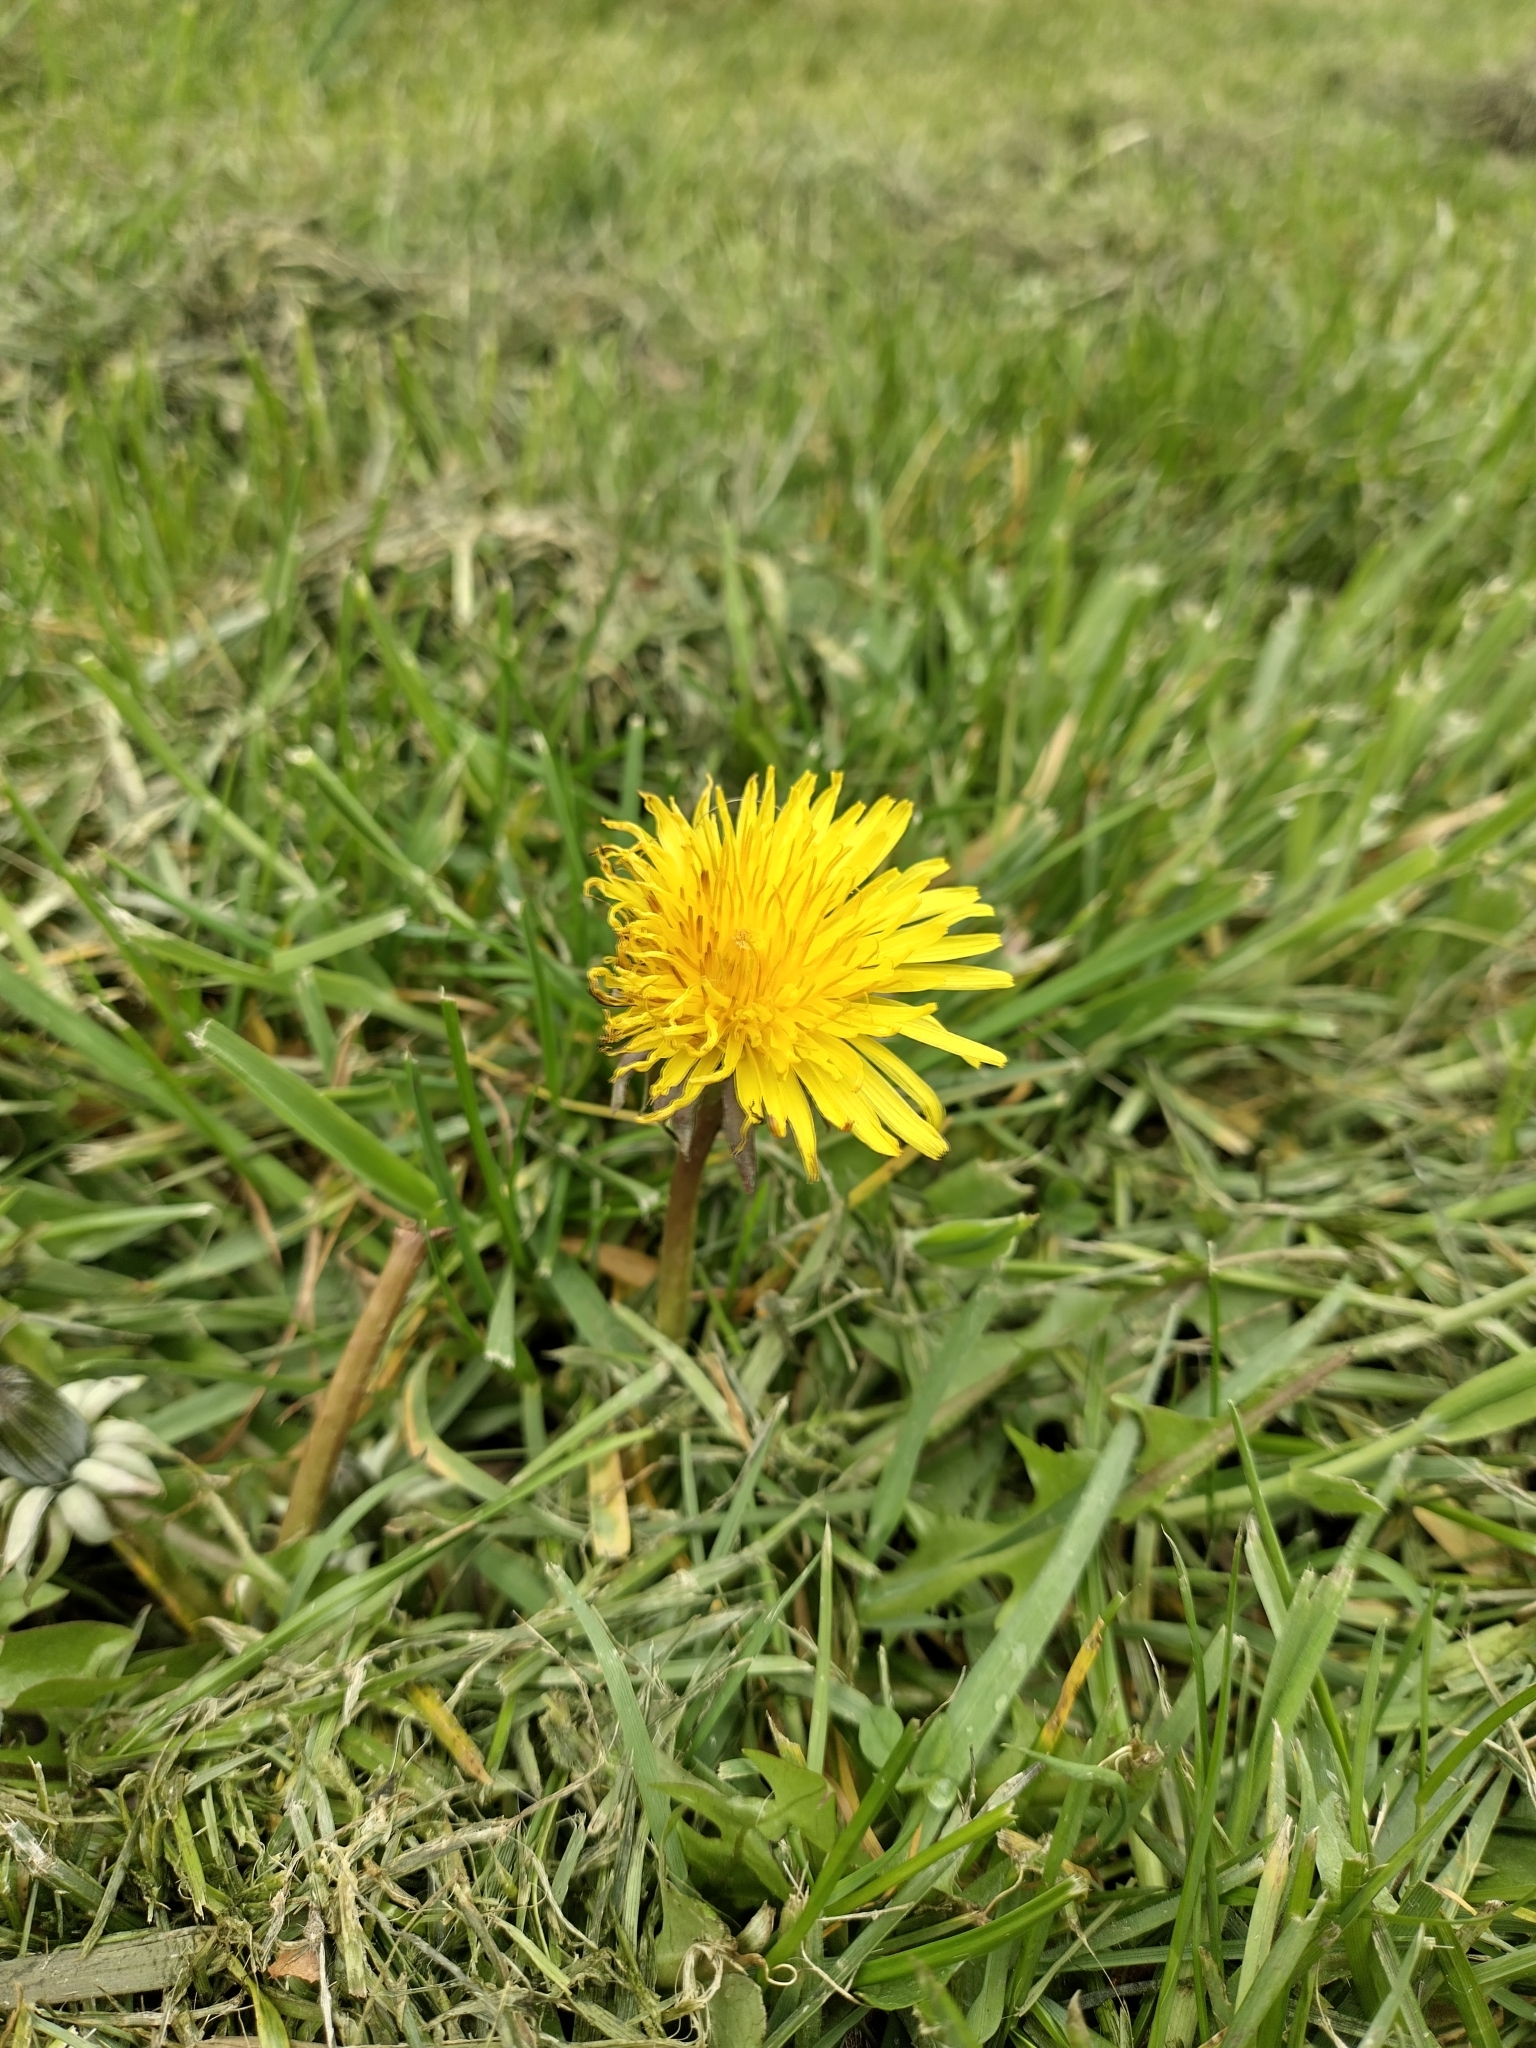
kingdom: Plantae
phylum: Tracheophyta
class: Magnoliopsida
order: Asterales
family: Asteraceae
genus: Taraxacum
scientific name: Taraxacum officinale
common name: Common dandelion
